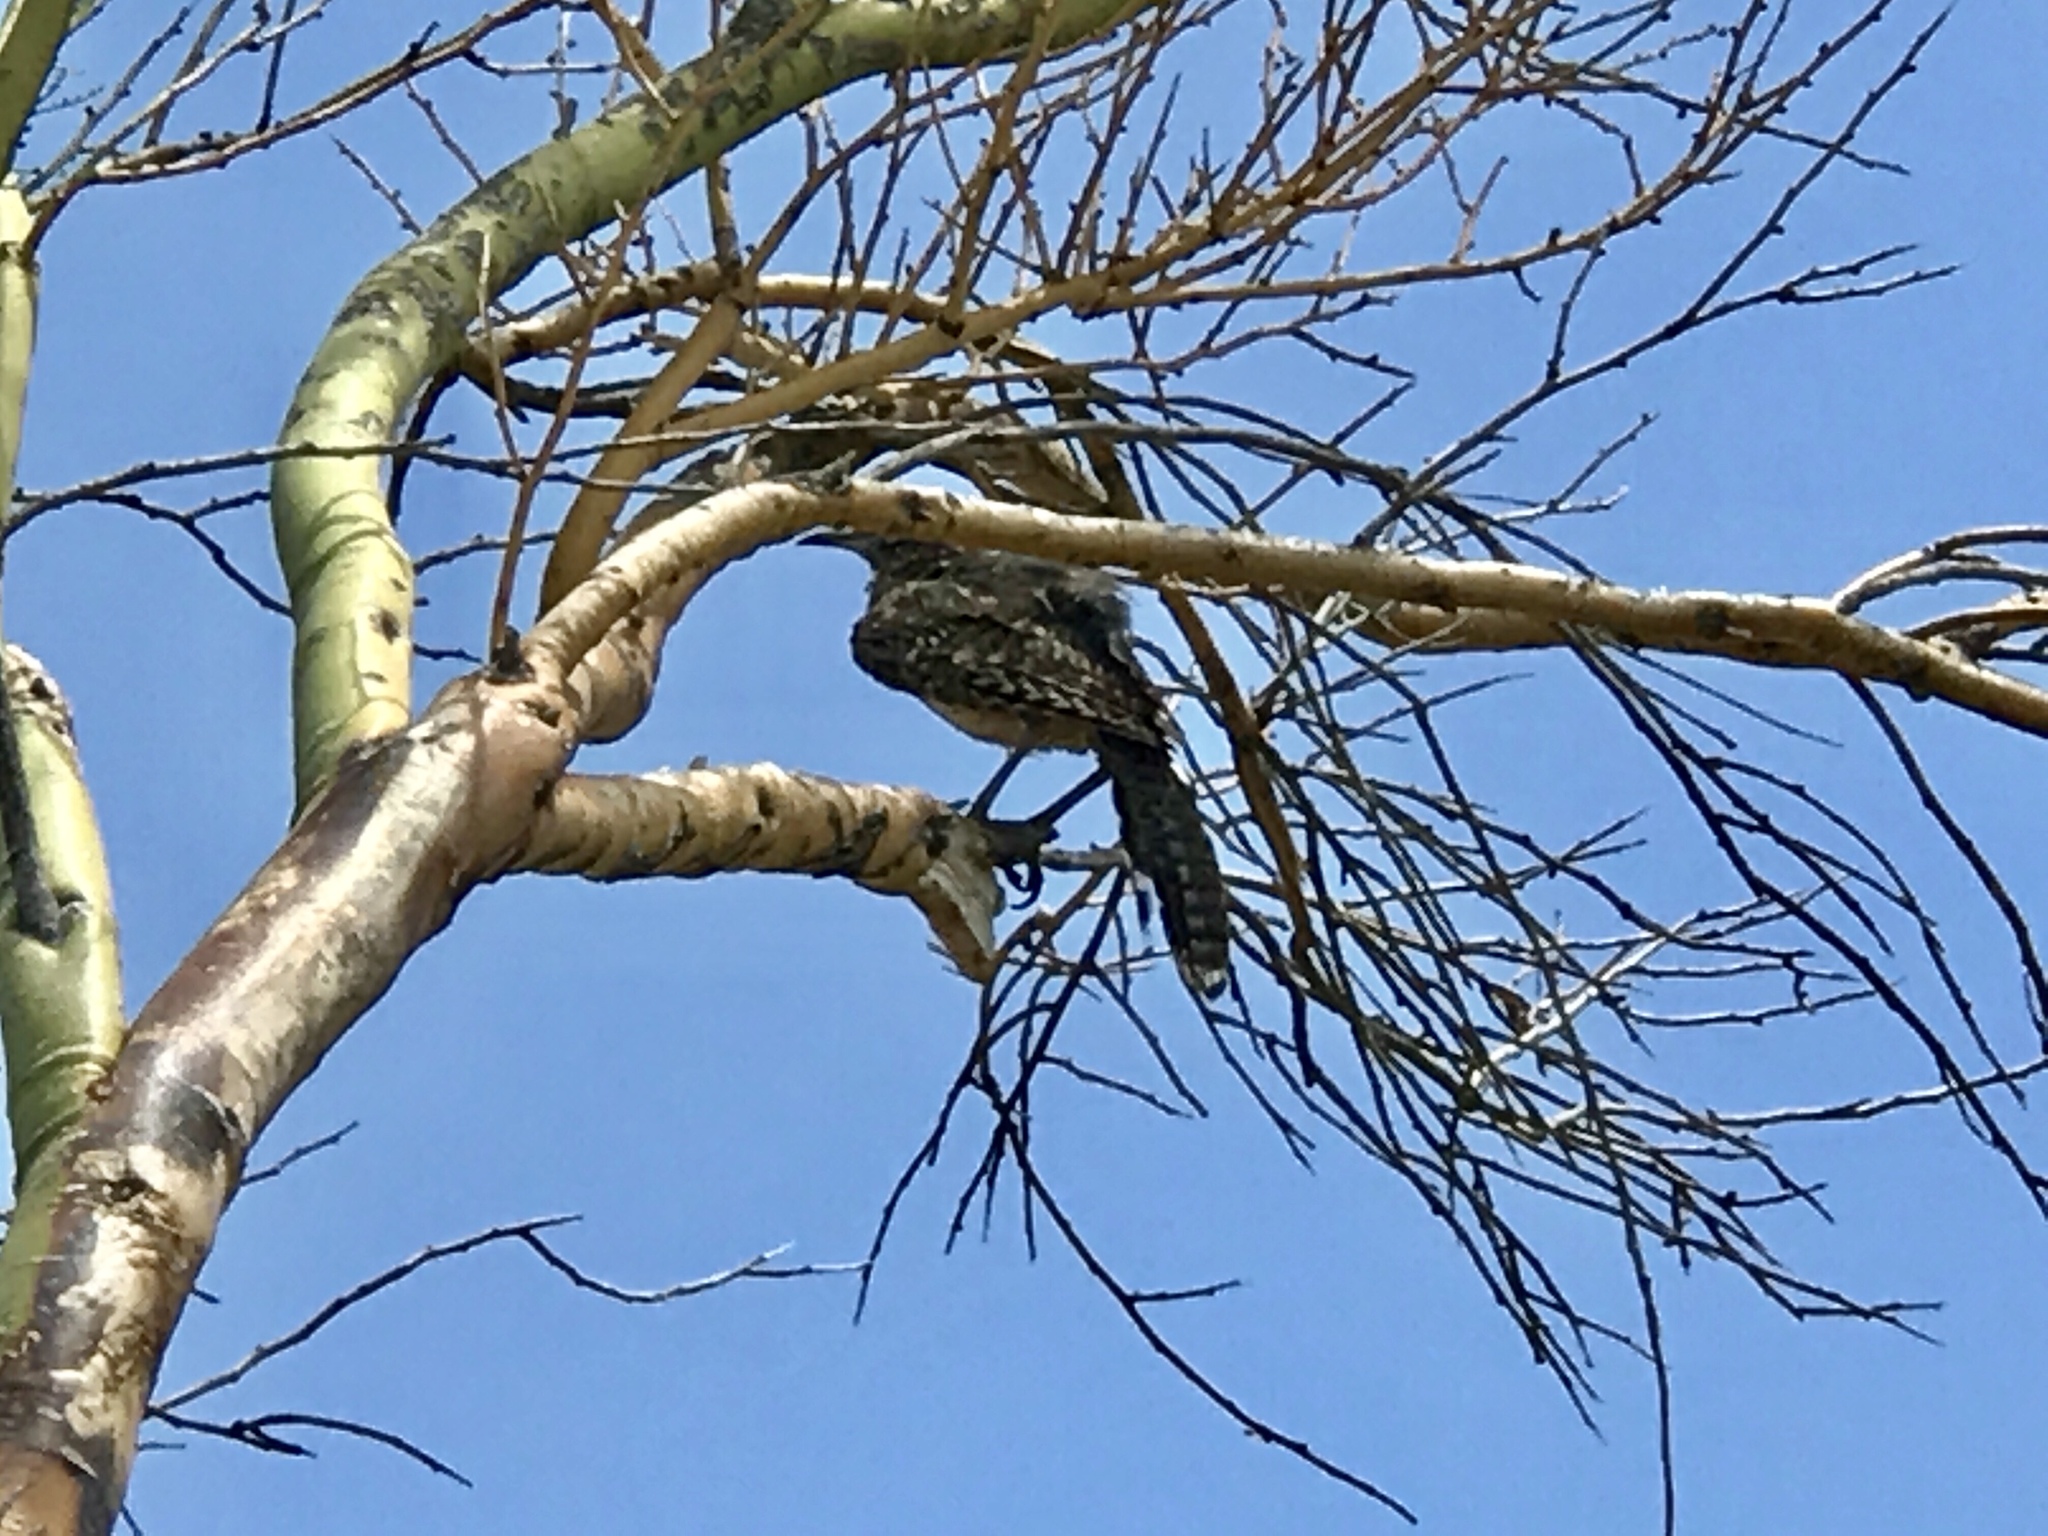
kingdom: Animalia
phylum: Chordata
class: Aves
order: Passeriformes
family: Troglodytidae
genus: Campylorhynchus
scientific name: Campylorhynchus brunneicapillus
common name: Cactus wren
